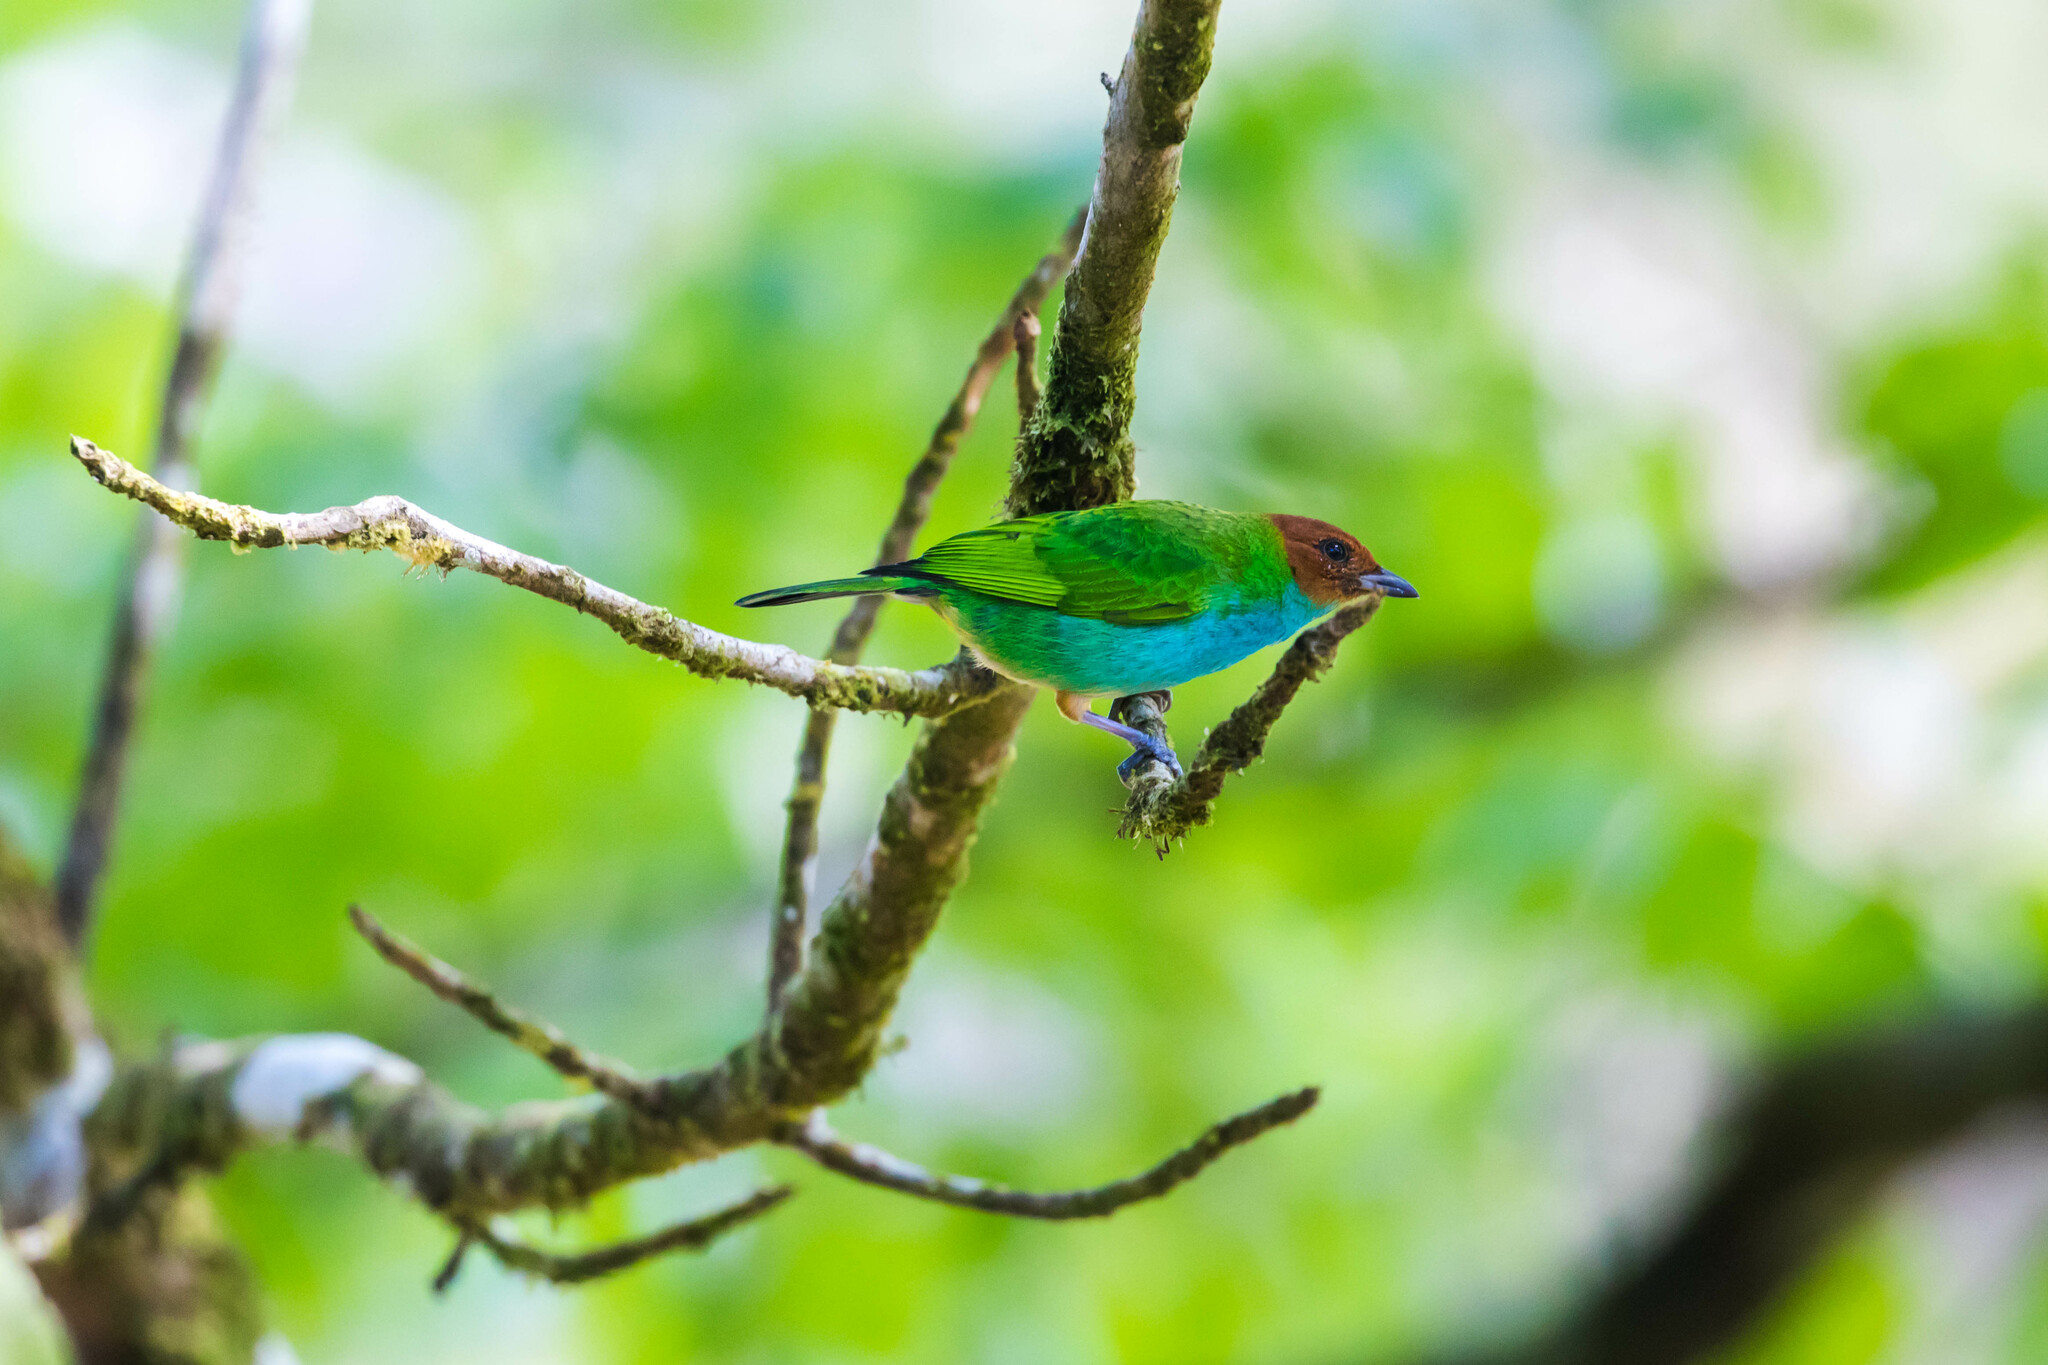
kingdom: Animalia
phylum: Chordata
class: Aves
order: Passeriformes
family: Thraupidae
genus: Tangara
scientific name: Tangara gyrola
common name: Bay-headed tanager
